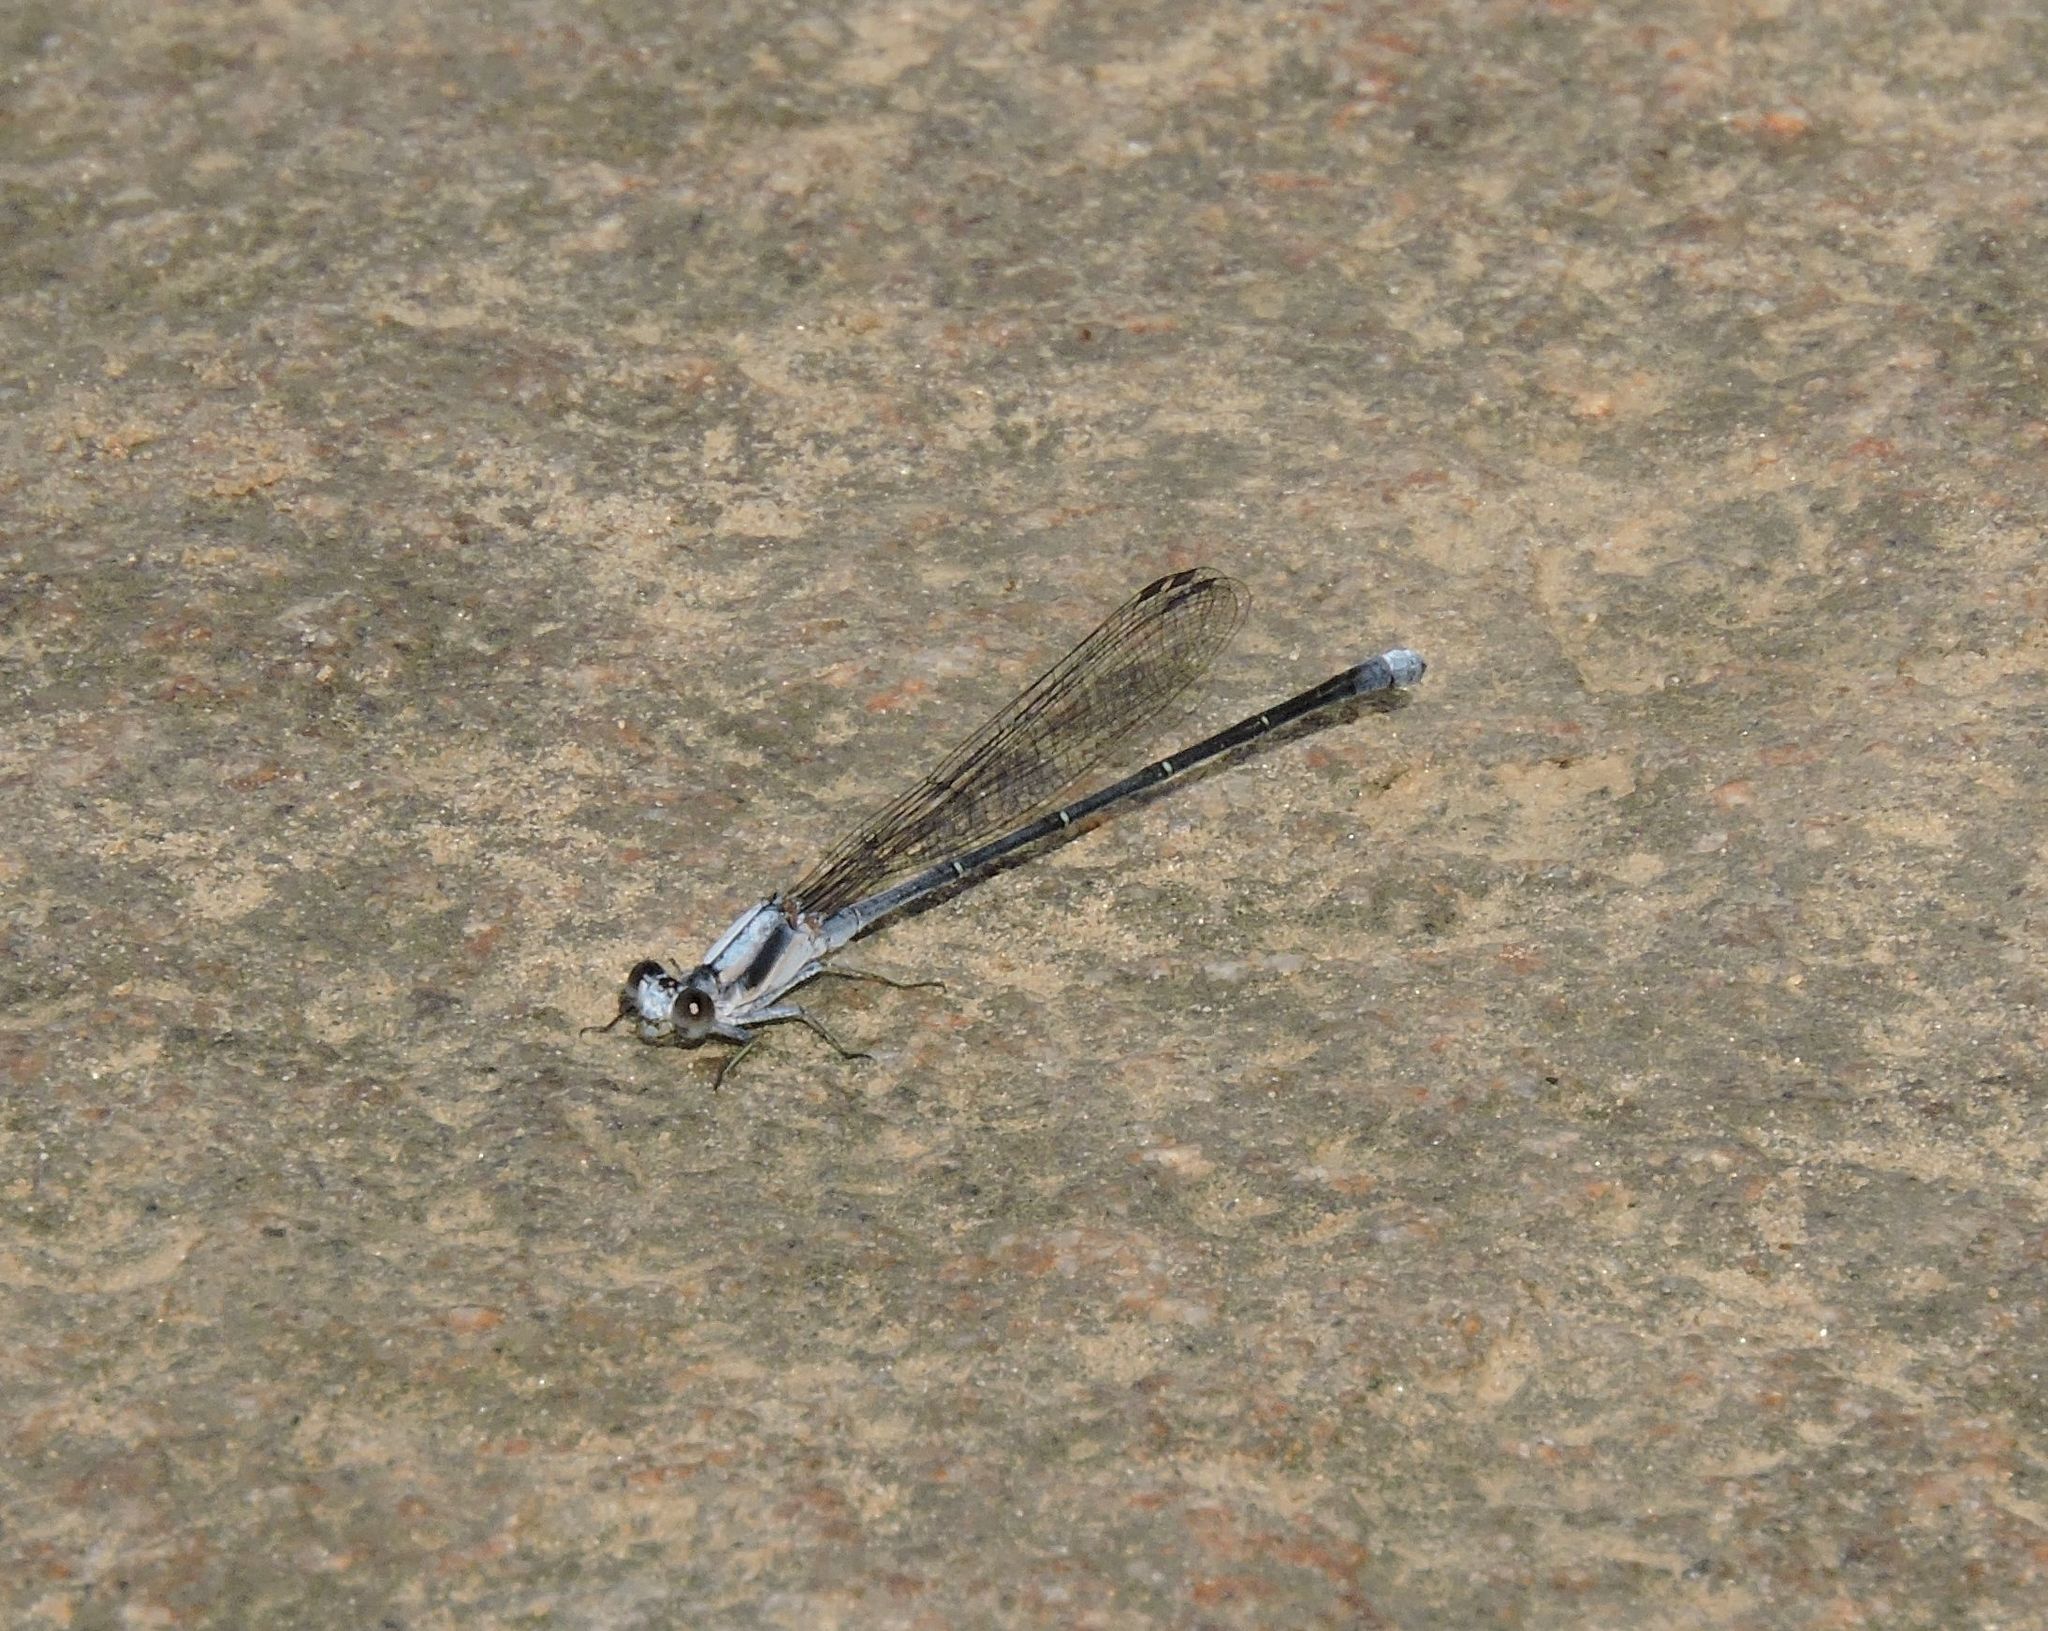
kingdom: Animalia
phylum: Arthropoda
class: Insecta
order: Odonata
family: Coenagrionidae
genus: Argia
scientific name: Argia moesta
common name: Powdered dancer
